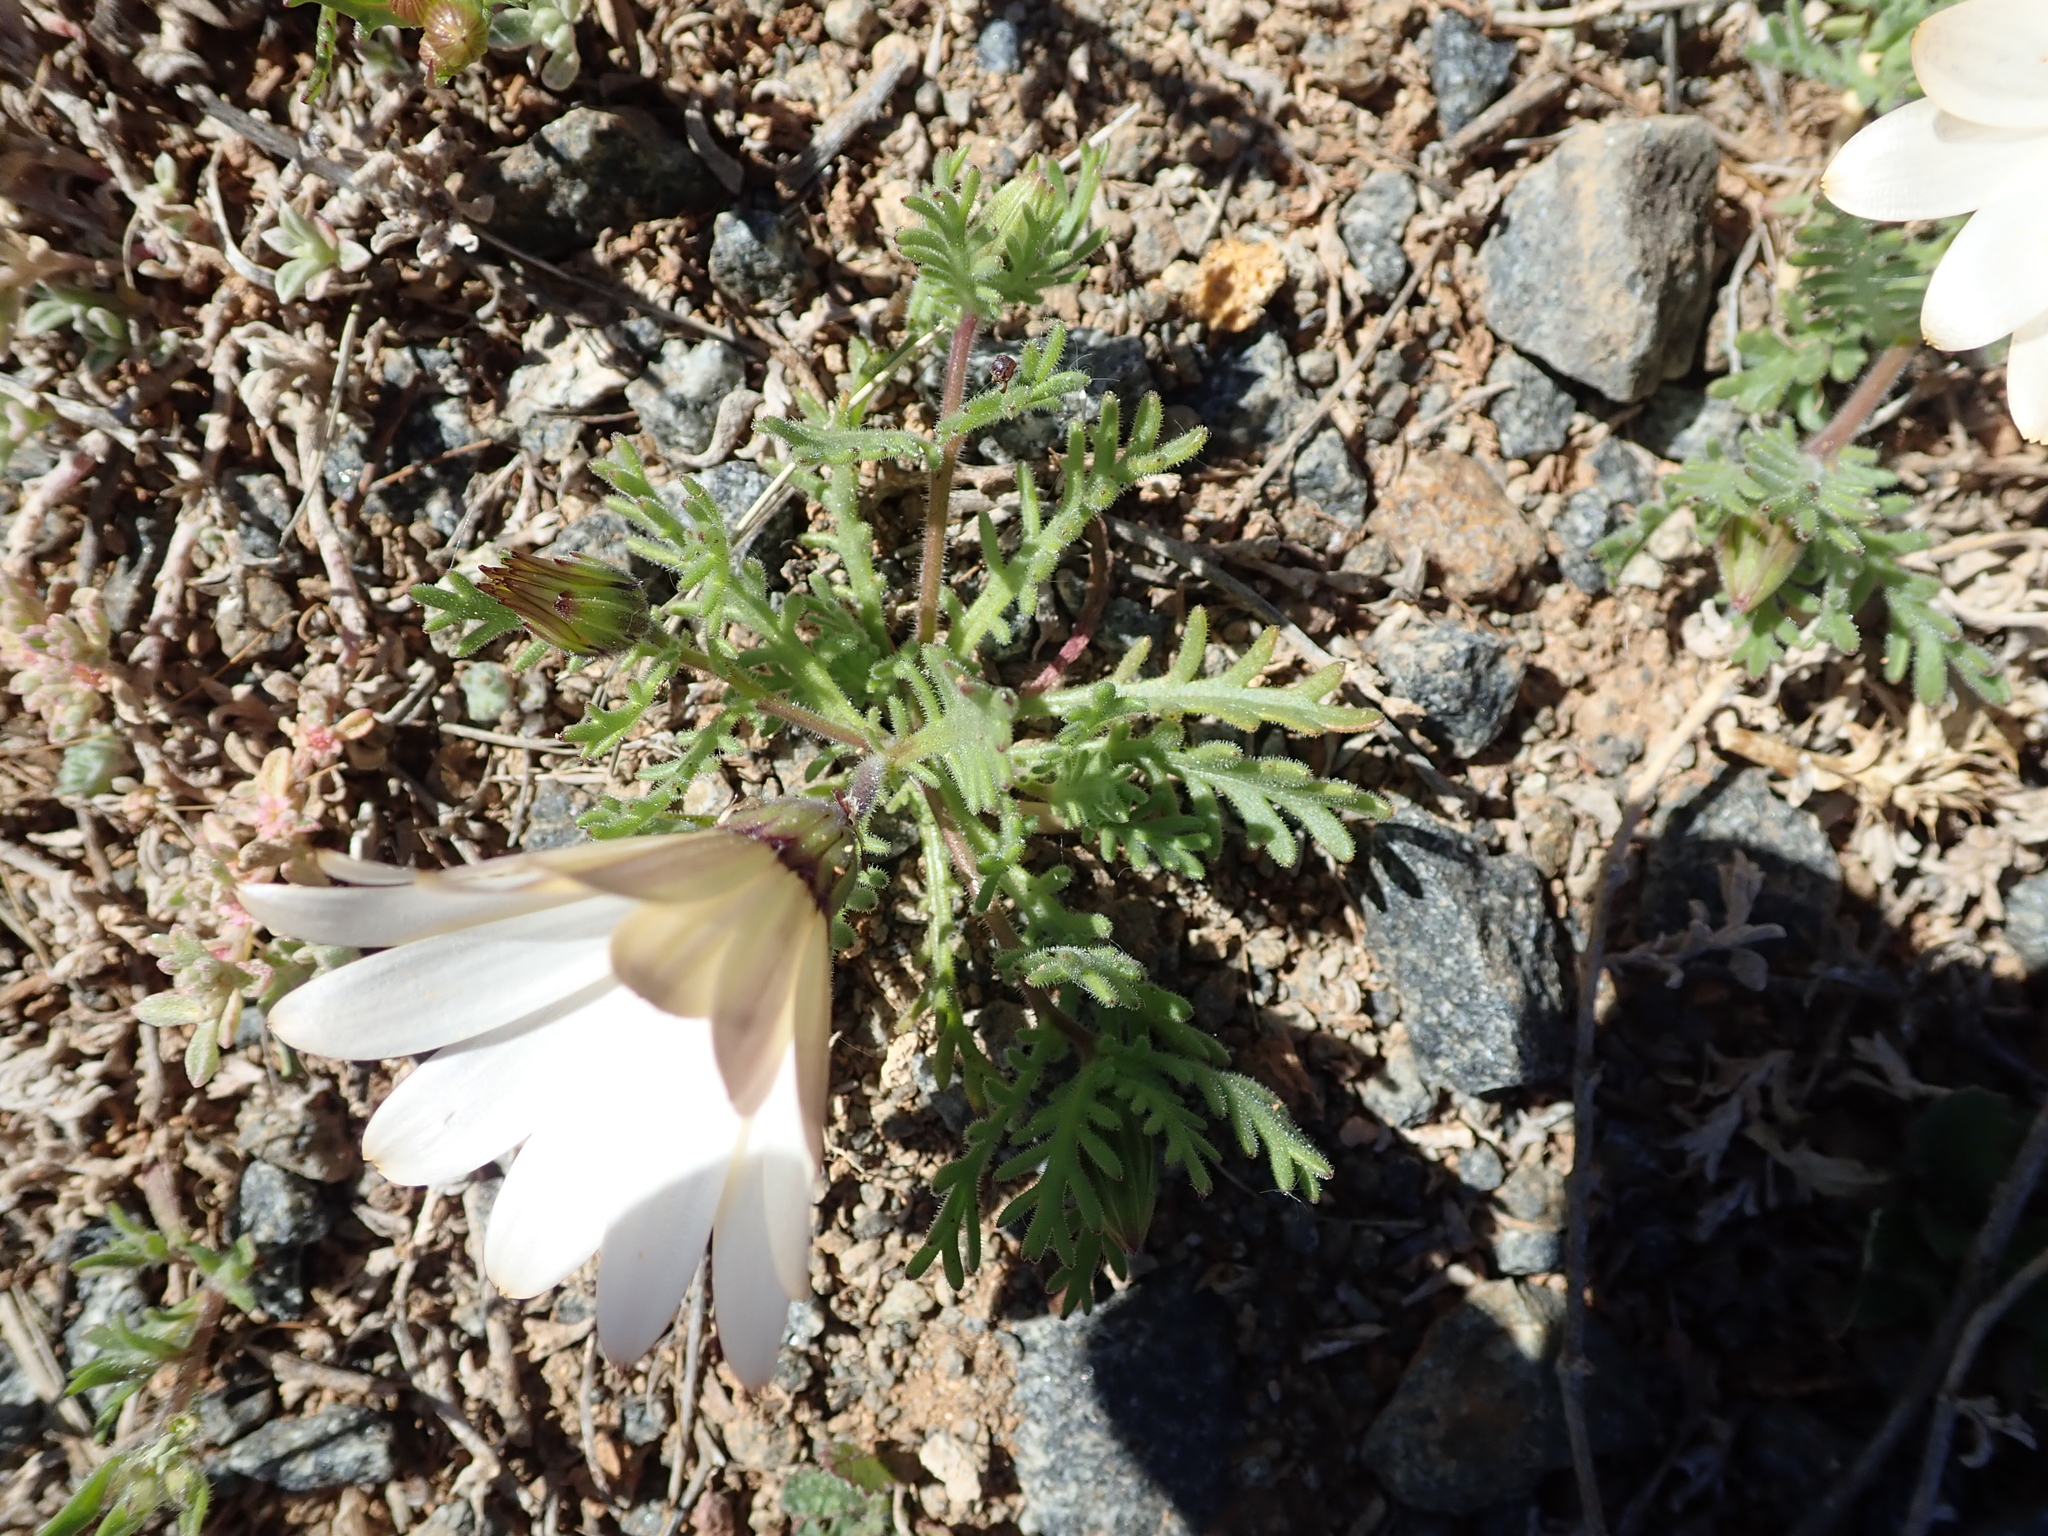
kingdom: Plantae
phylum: Tracheophyta
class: Magnoliopsida
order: Asterales
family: Asteraceae
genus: Dimorphotheca
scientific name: Dimorphotheca pinnata
